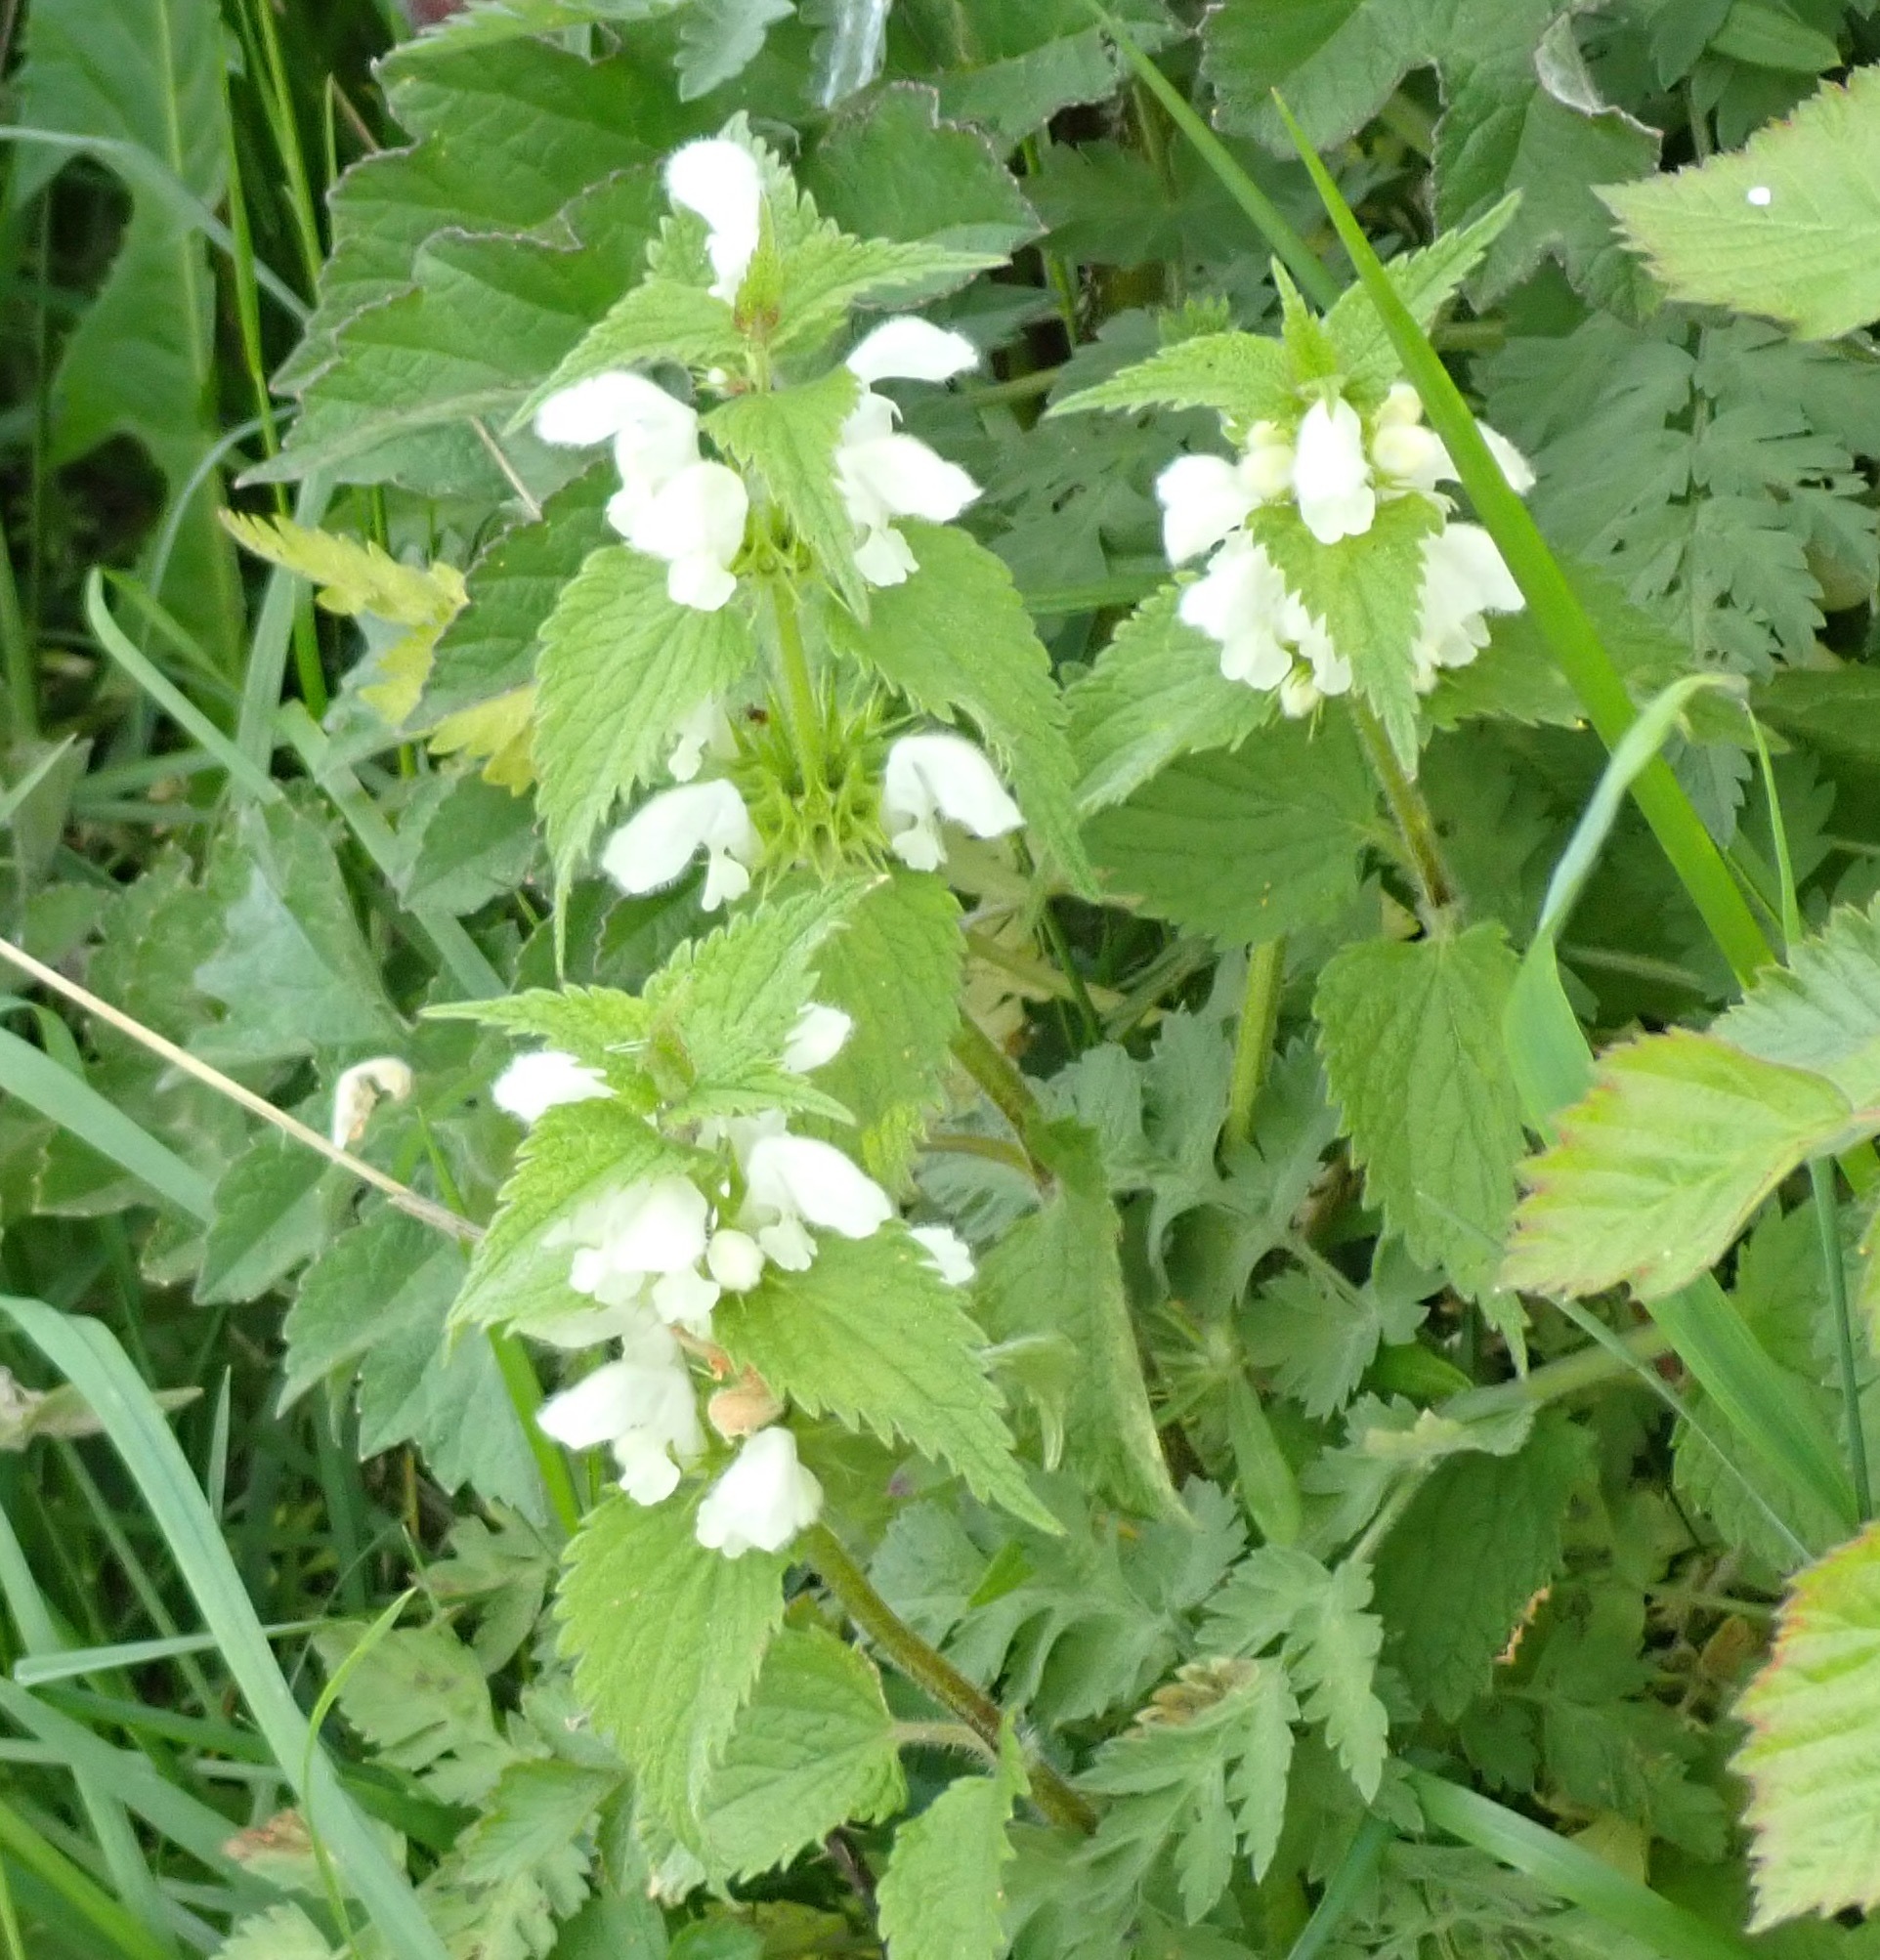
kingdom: Plantae
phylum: Tracheophyta
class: Magnoliopsida
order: Lamiales
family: Lamiaceae
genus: Lamium
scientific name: Lamium album
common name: White dead-nettle
